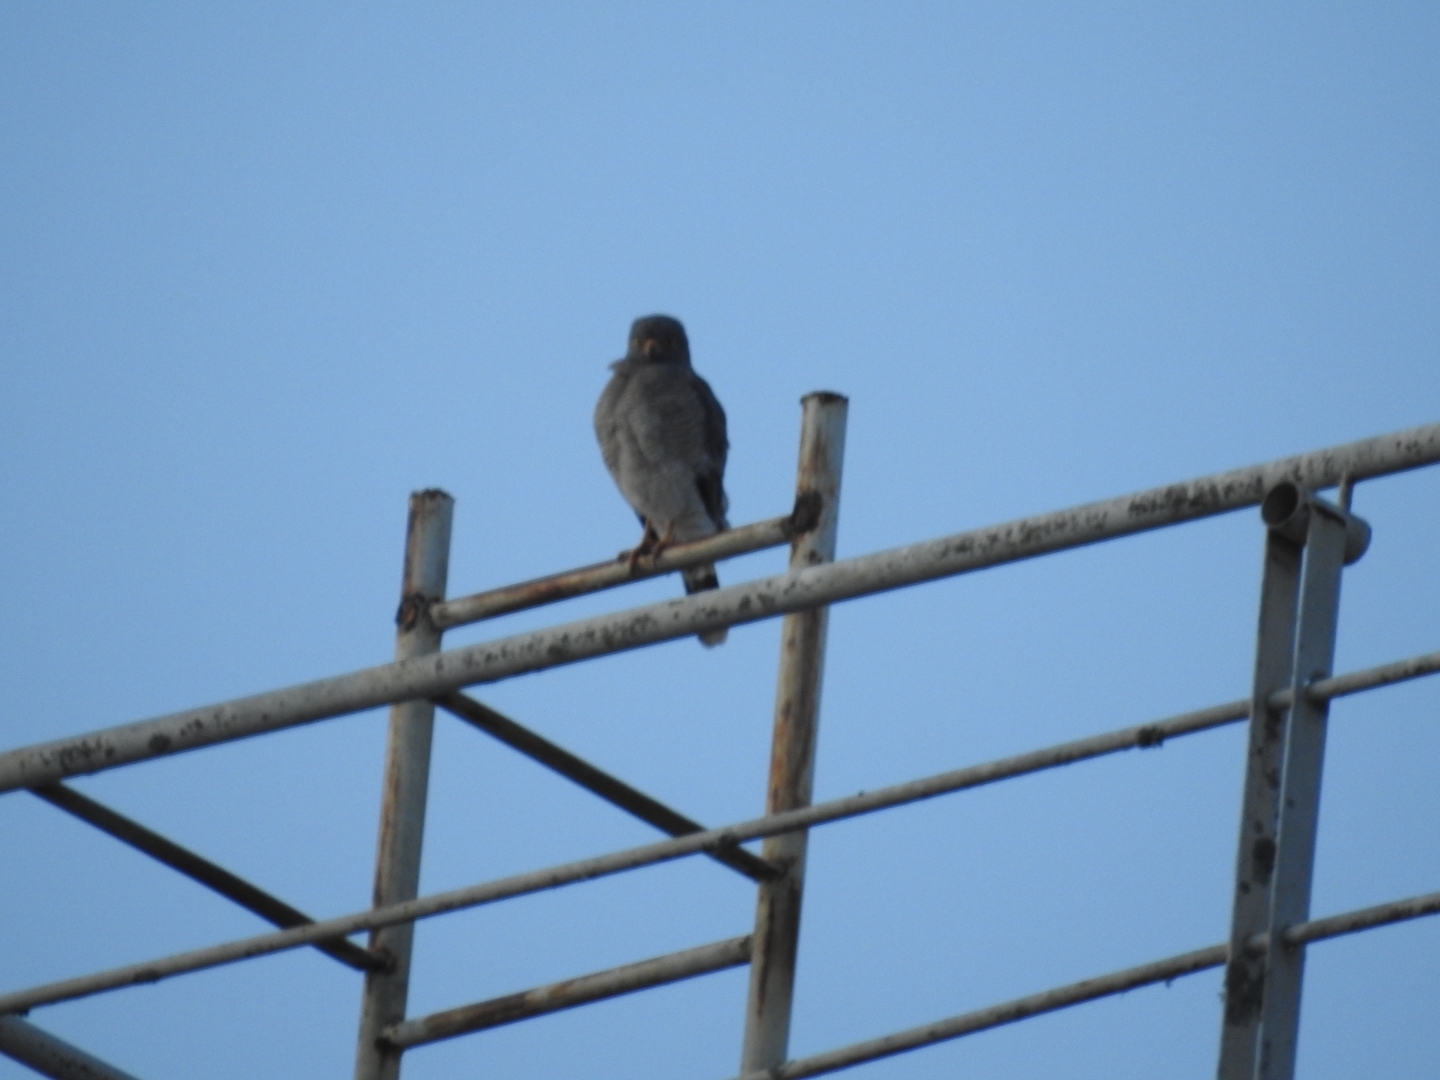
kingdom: Animalia
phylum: Chordata
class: Aves
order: Accipitriformes
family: Accipitridae
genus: Rupornis
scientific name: Rupornis magnirostris
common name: Roadside hawk
